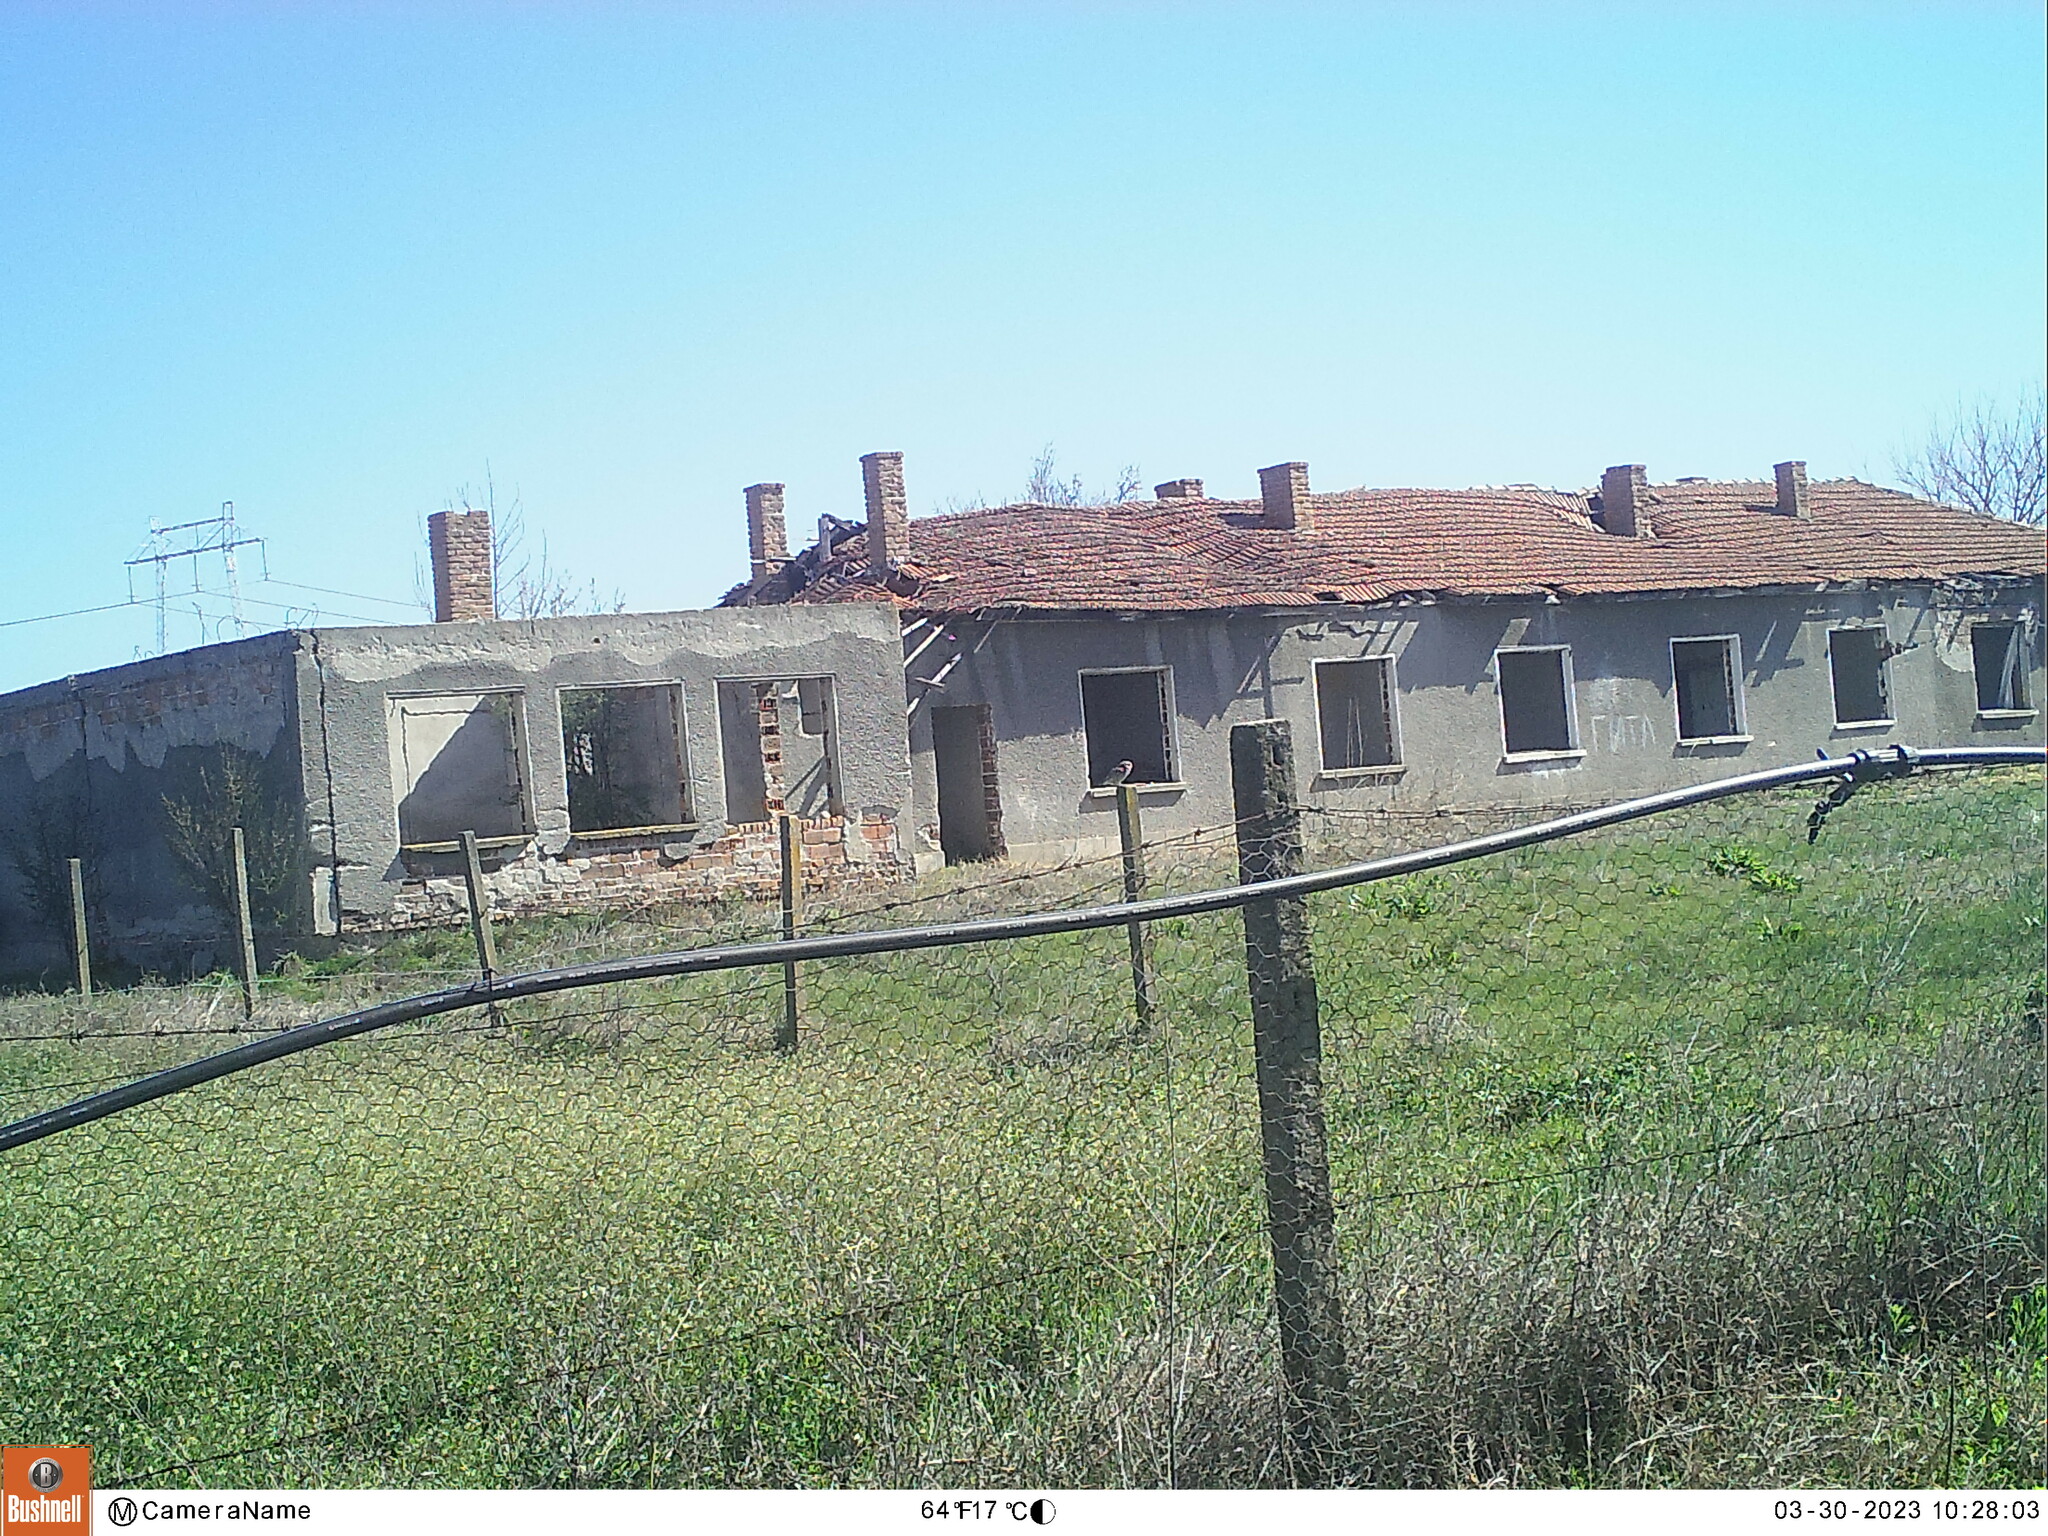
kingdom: Animalia
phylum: Chordata
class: Aves
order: Strigiformes
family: Strigidae
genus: Athene
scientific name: Athene noctua
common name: Little owl
